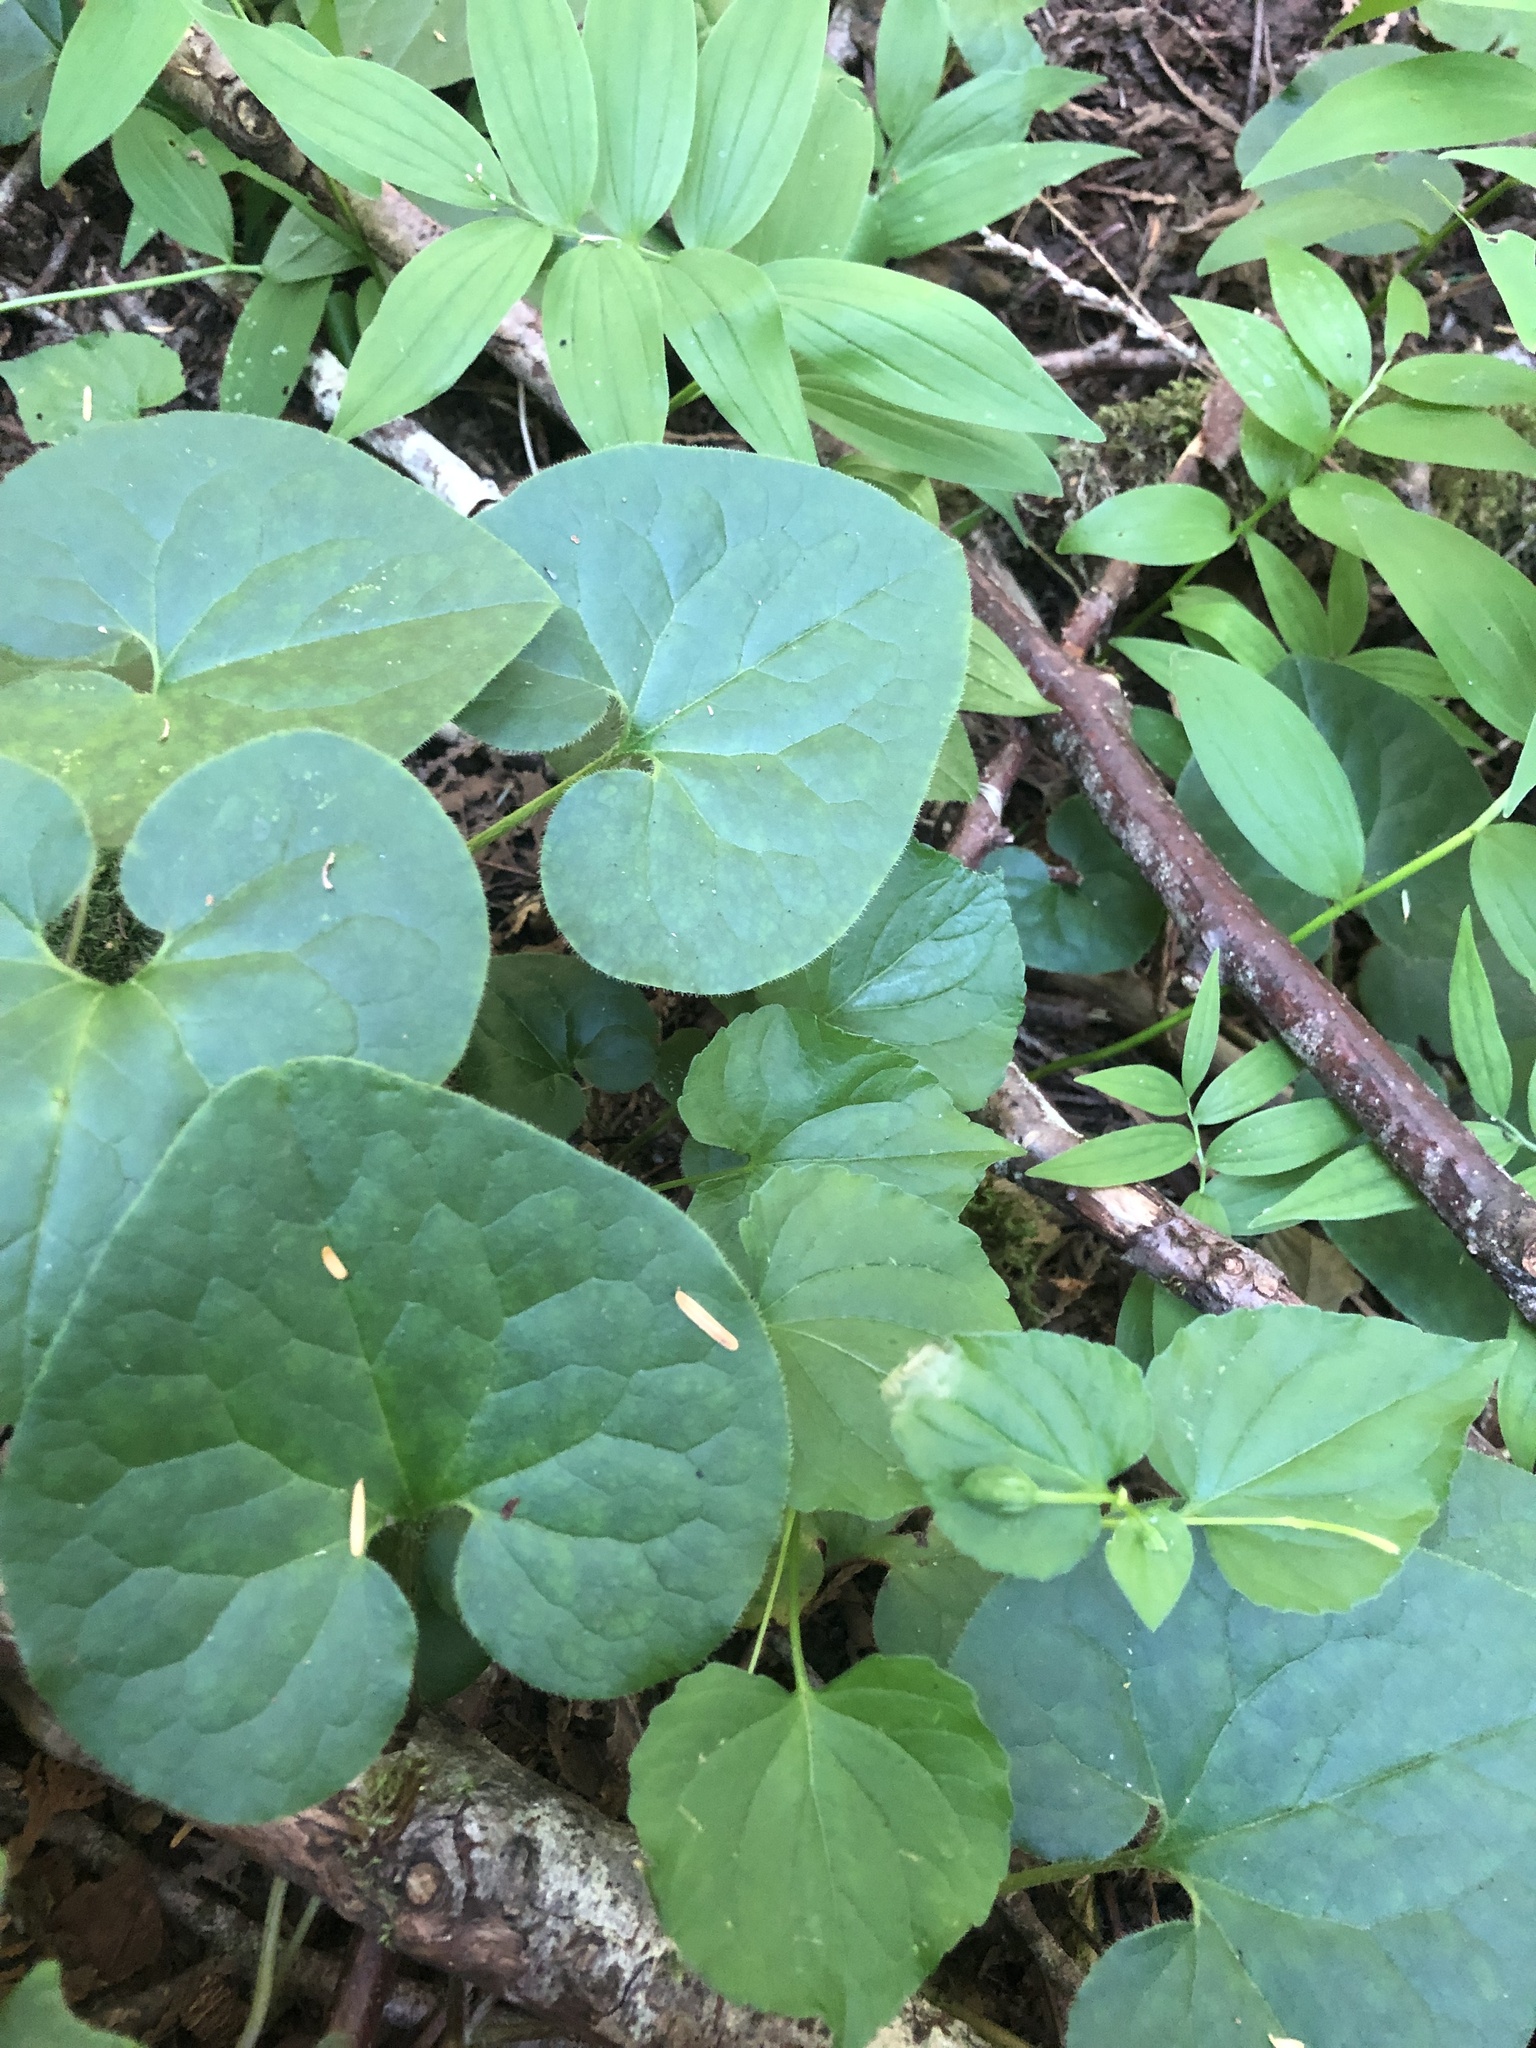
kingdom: Plantae
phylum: Tracheophyta
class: Magnoliopsida
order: Piperales
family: Aristolochiaceae
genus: Asarum
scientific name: Asarum caudatum
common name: Wild ginger
